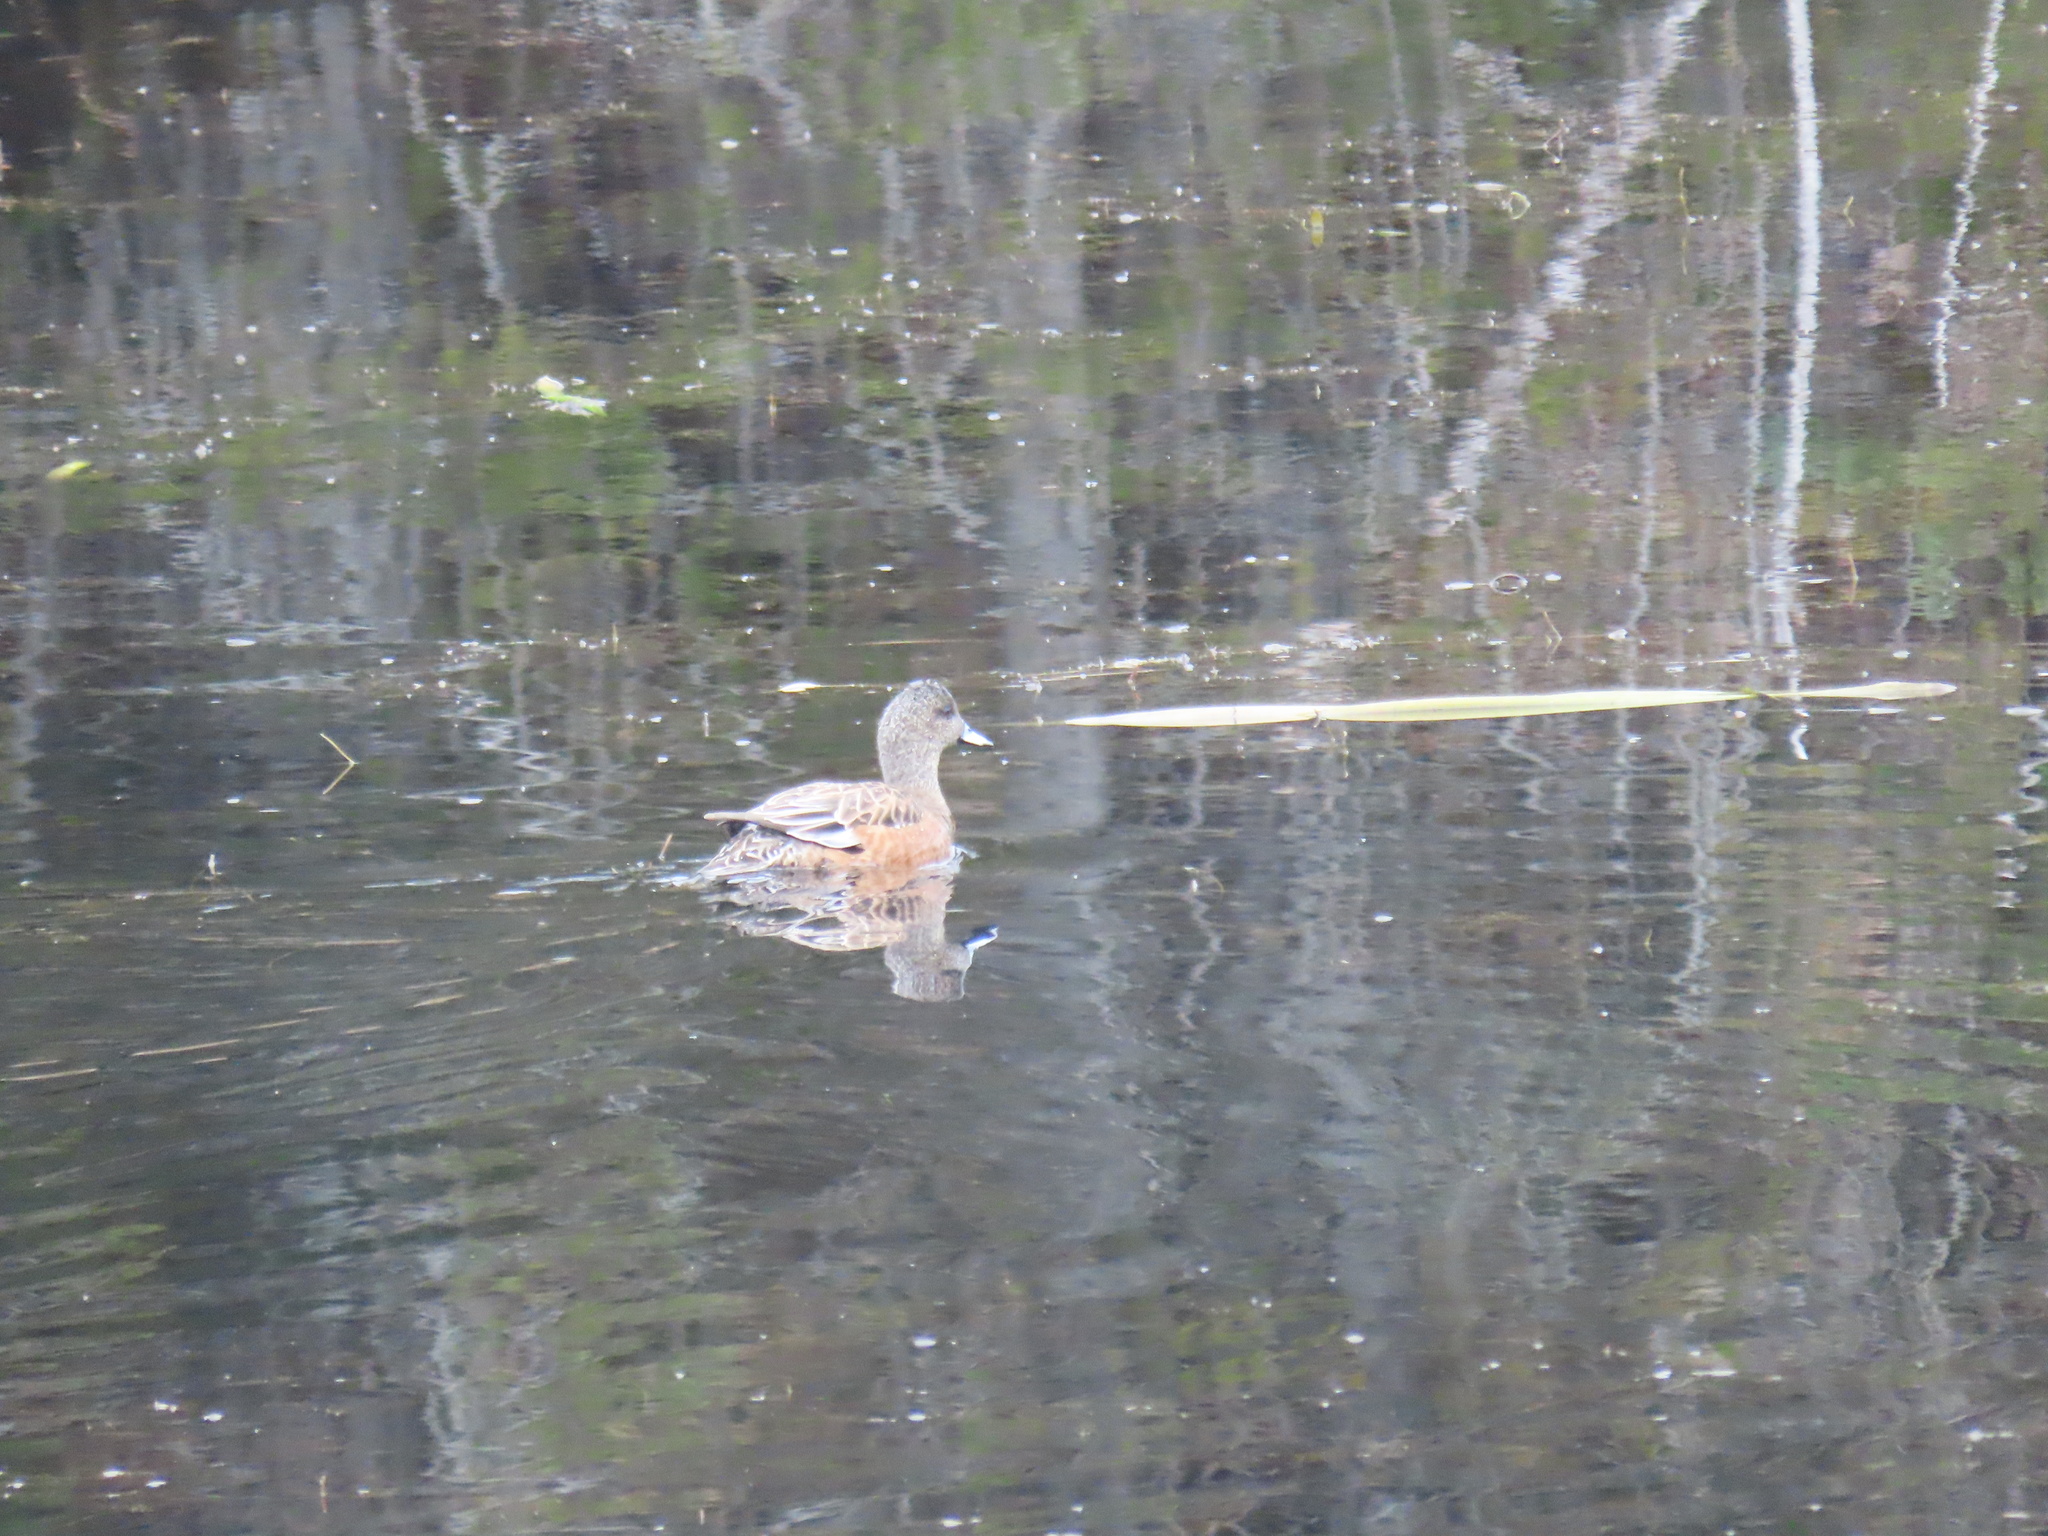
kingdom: Animalia
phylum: Chordata
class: Aves
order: Anseriformes
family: Anatidae
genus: Mareca
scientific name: Mareca americana
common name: American wigeon
